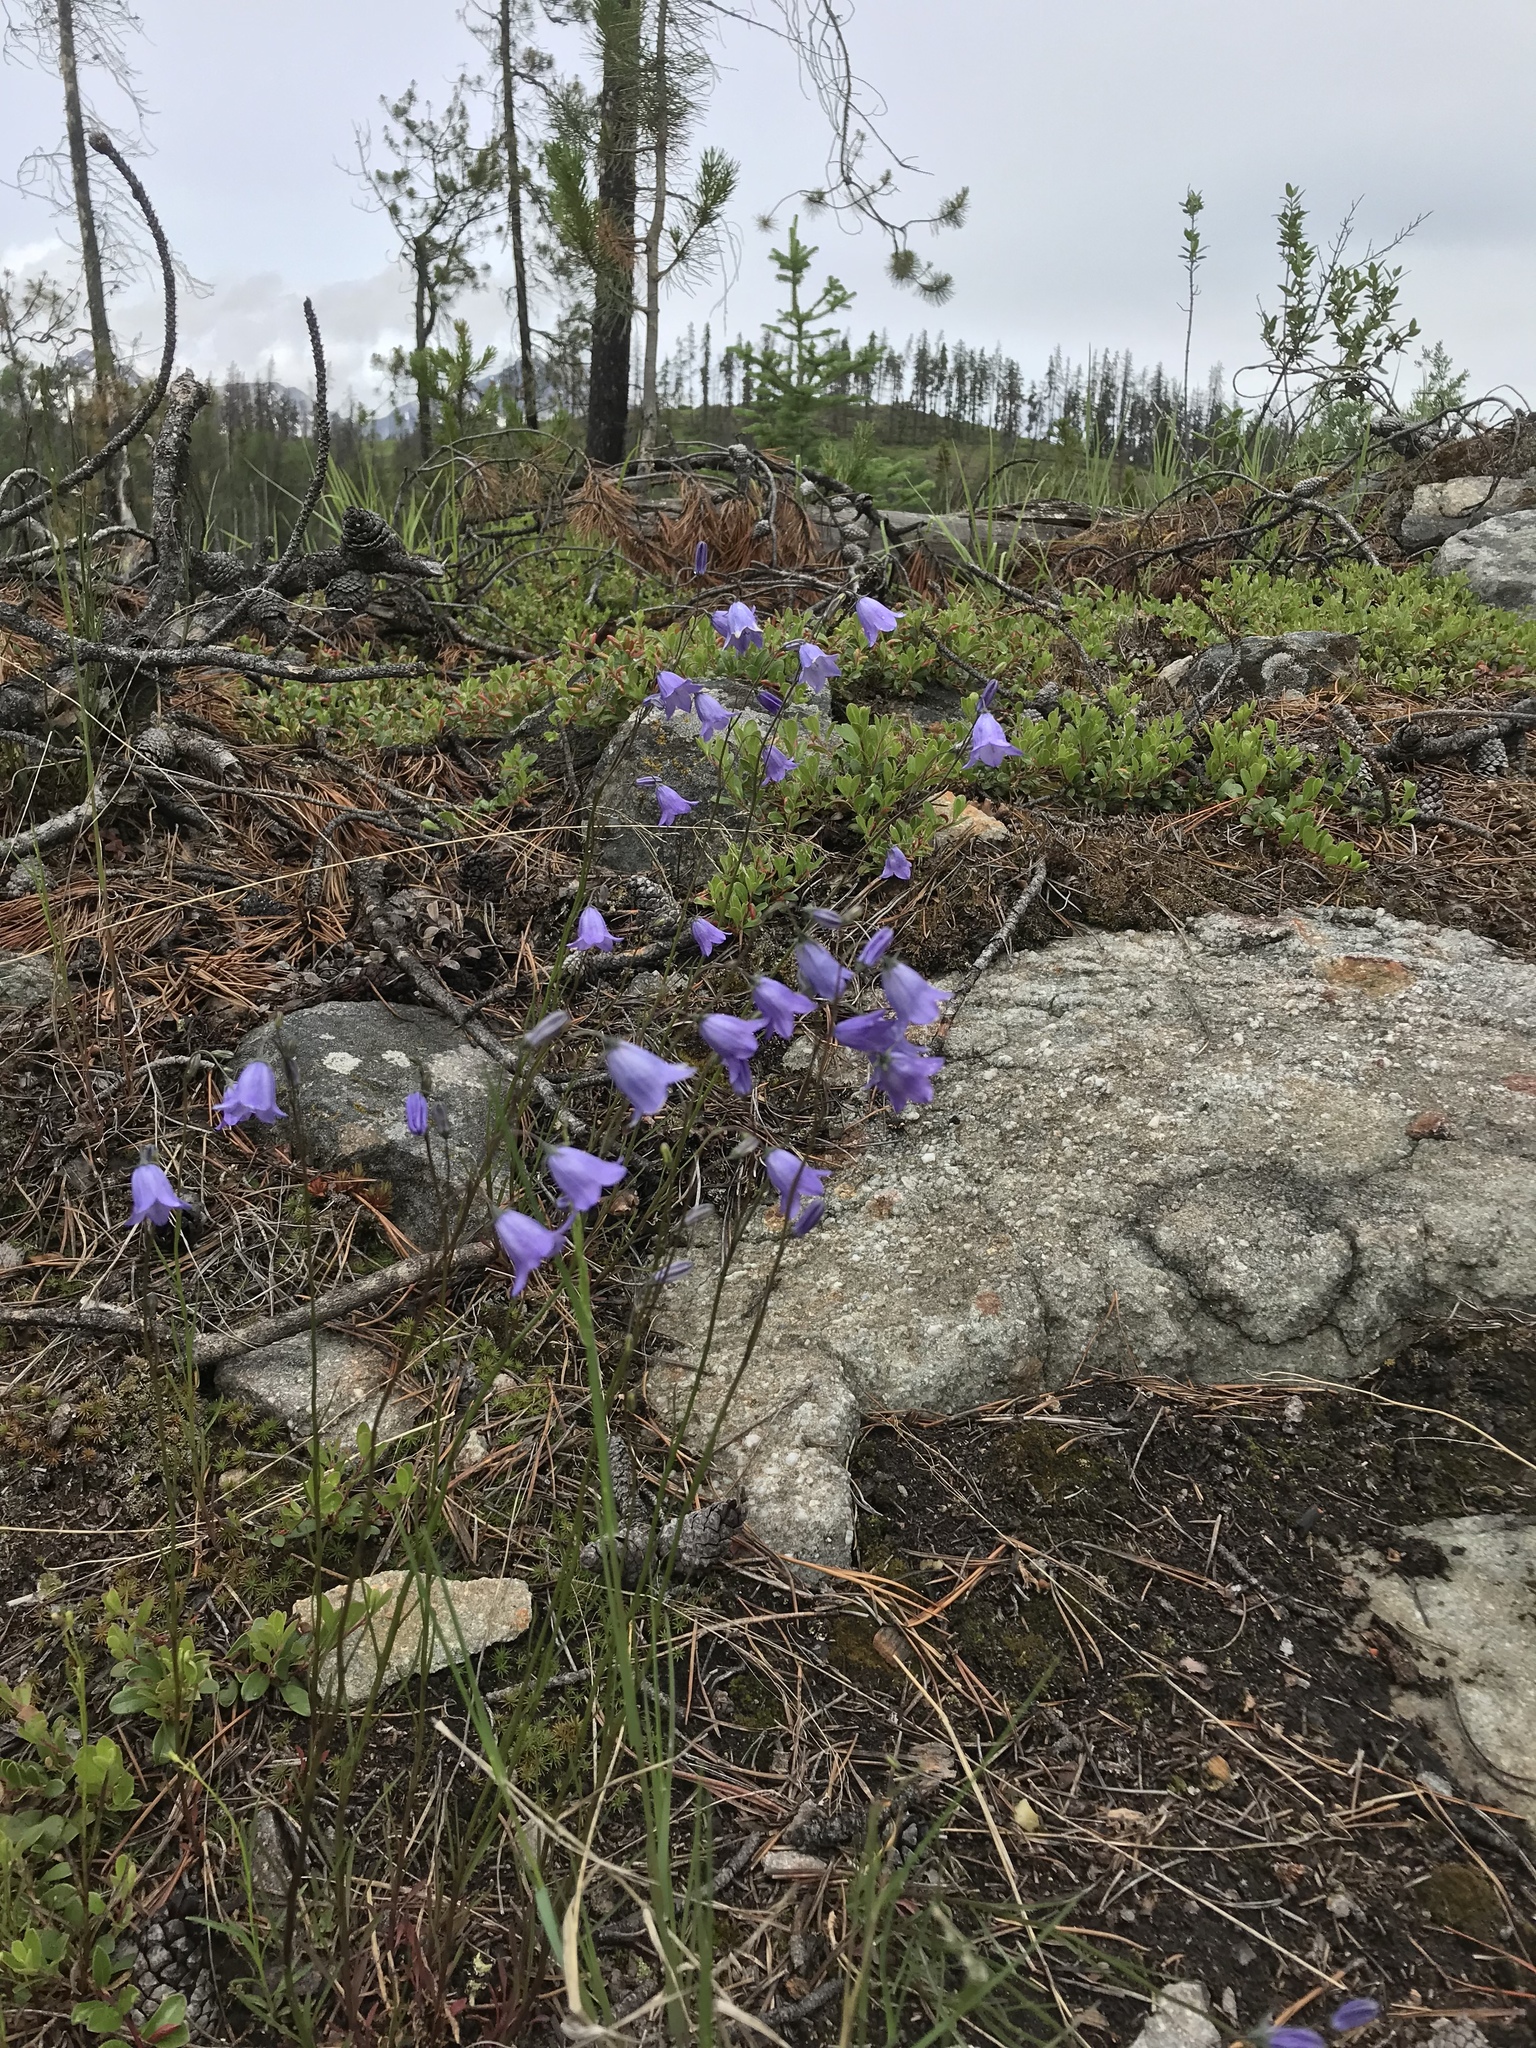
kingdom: Plantae
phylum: Tracheophyta
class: Magnoliopsida
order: Asterales
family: Campanulaceae
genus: Campanula
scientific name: Campanula alaskana
